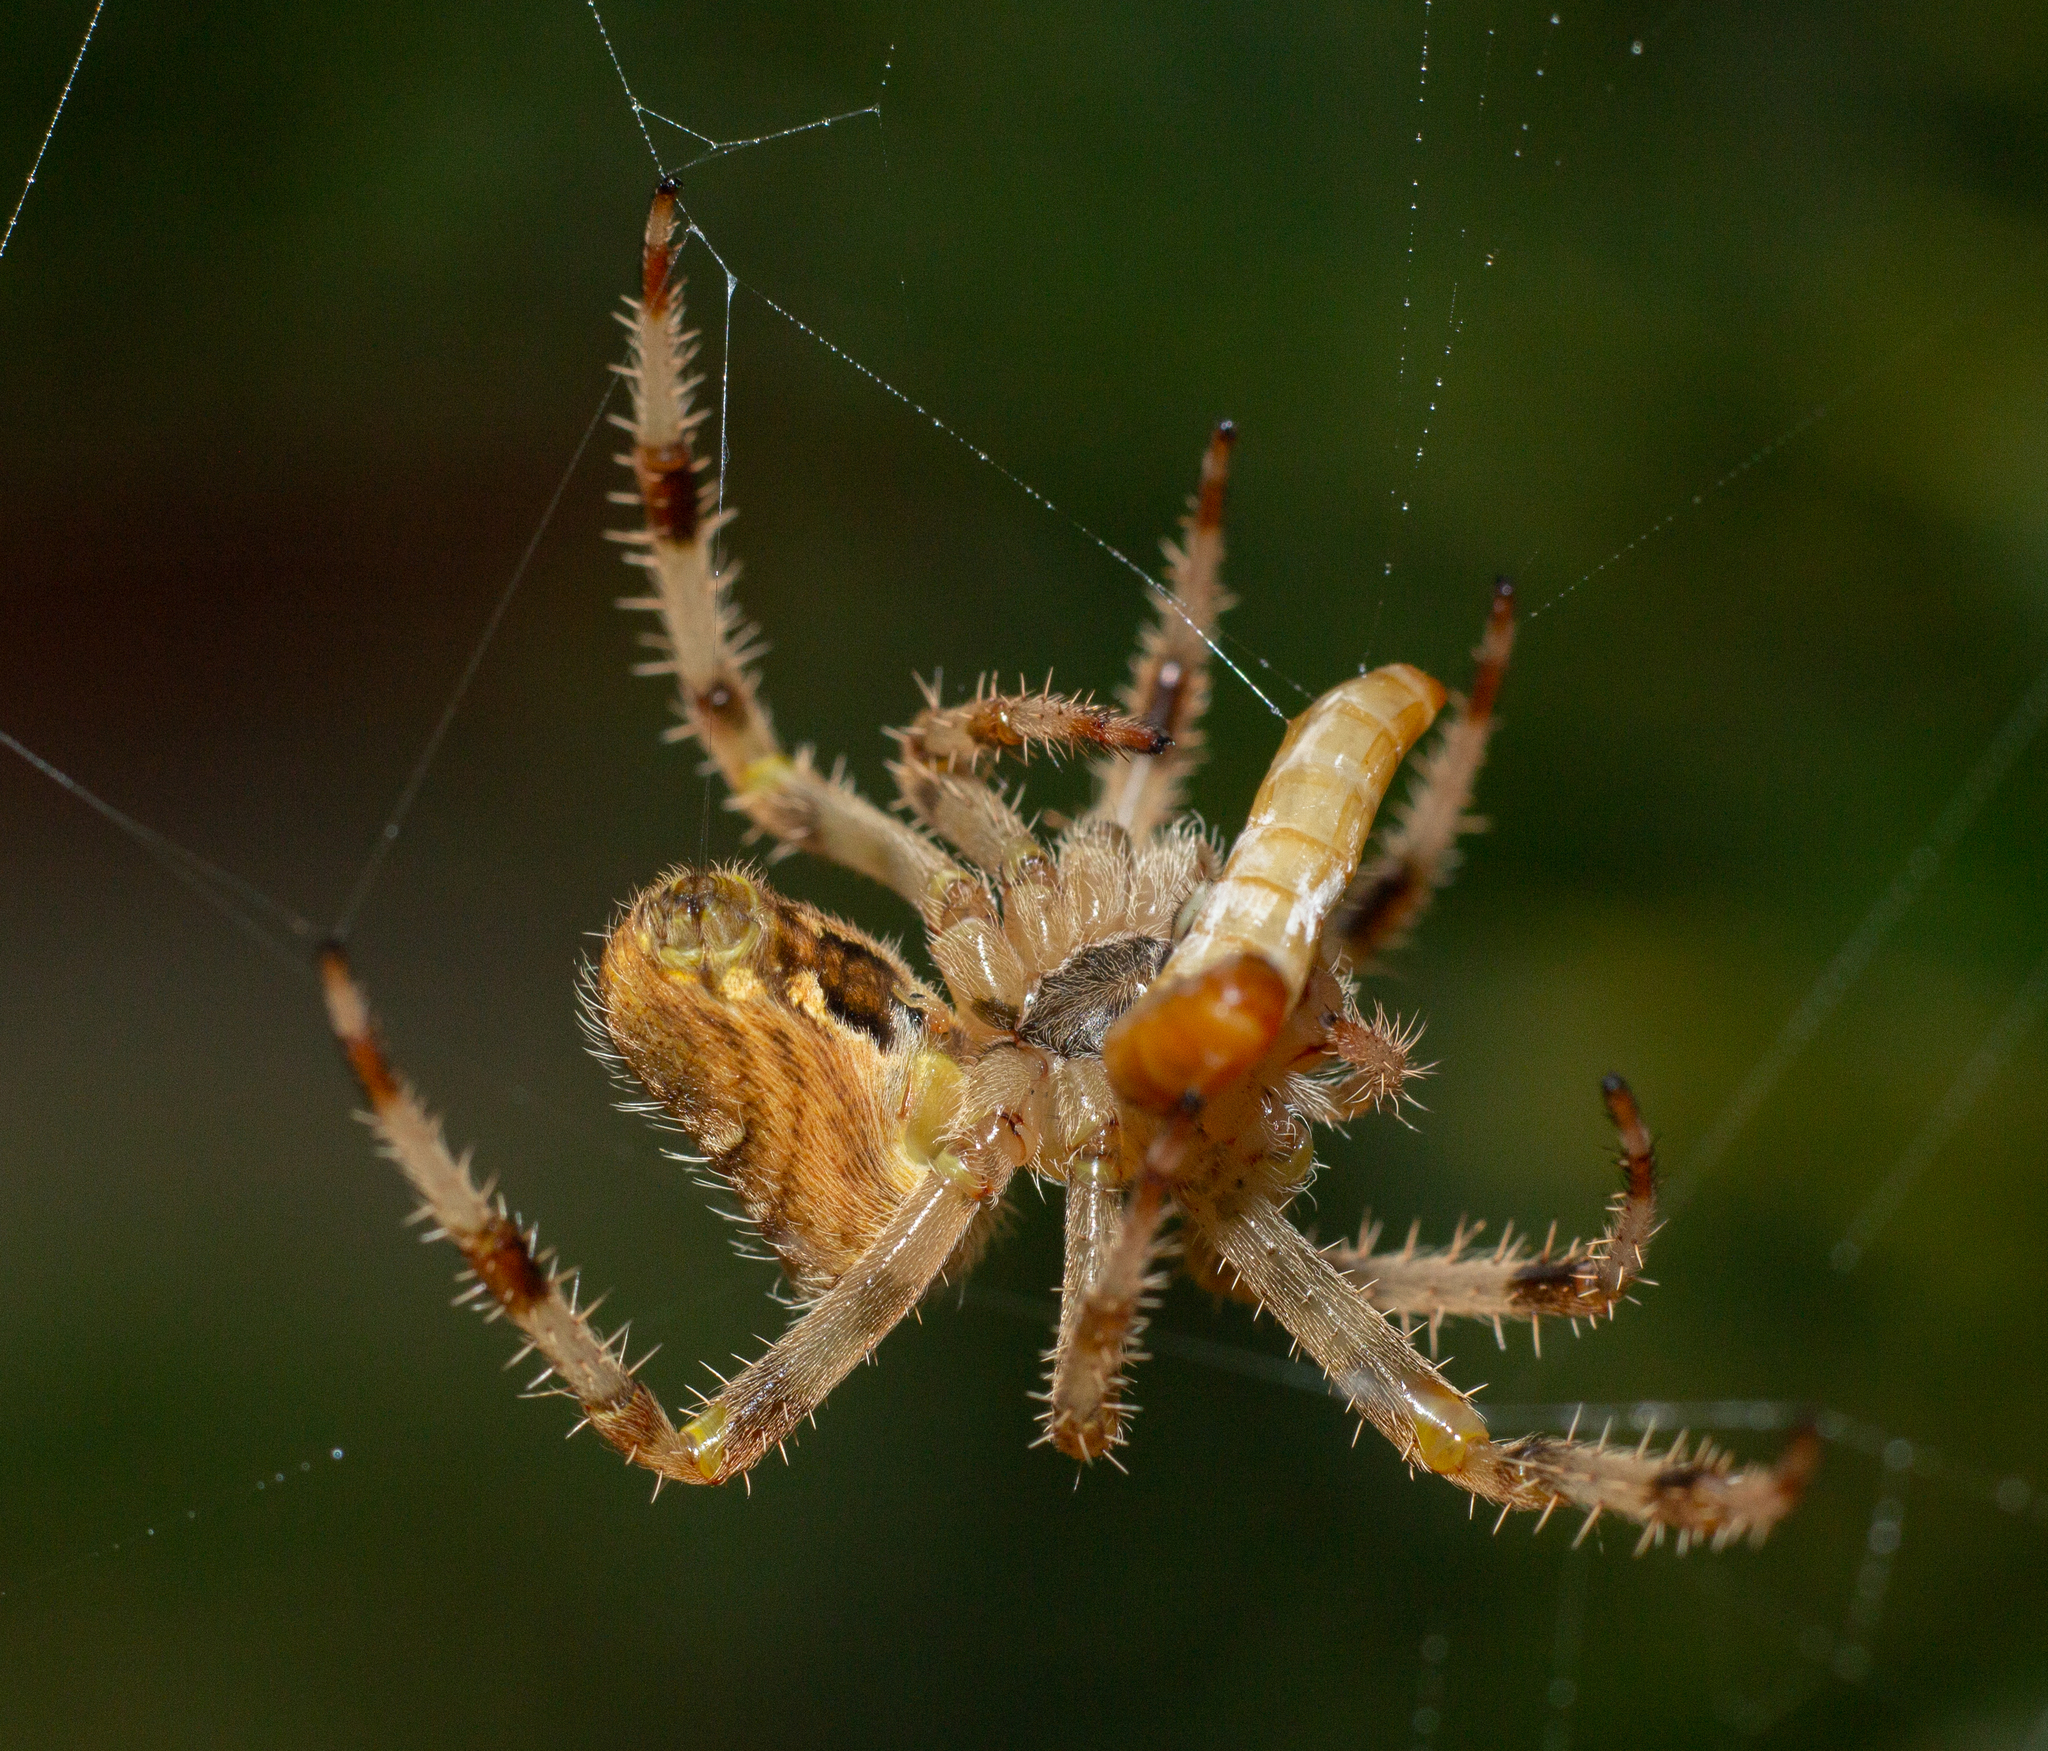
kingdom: Animalia
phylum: Arthropoda
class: Arachnida
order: Araneae
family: Araneidae
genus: Araneus
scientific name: Araneus diadematus
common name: Cross orbweaver
